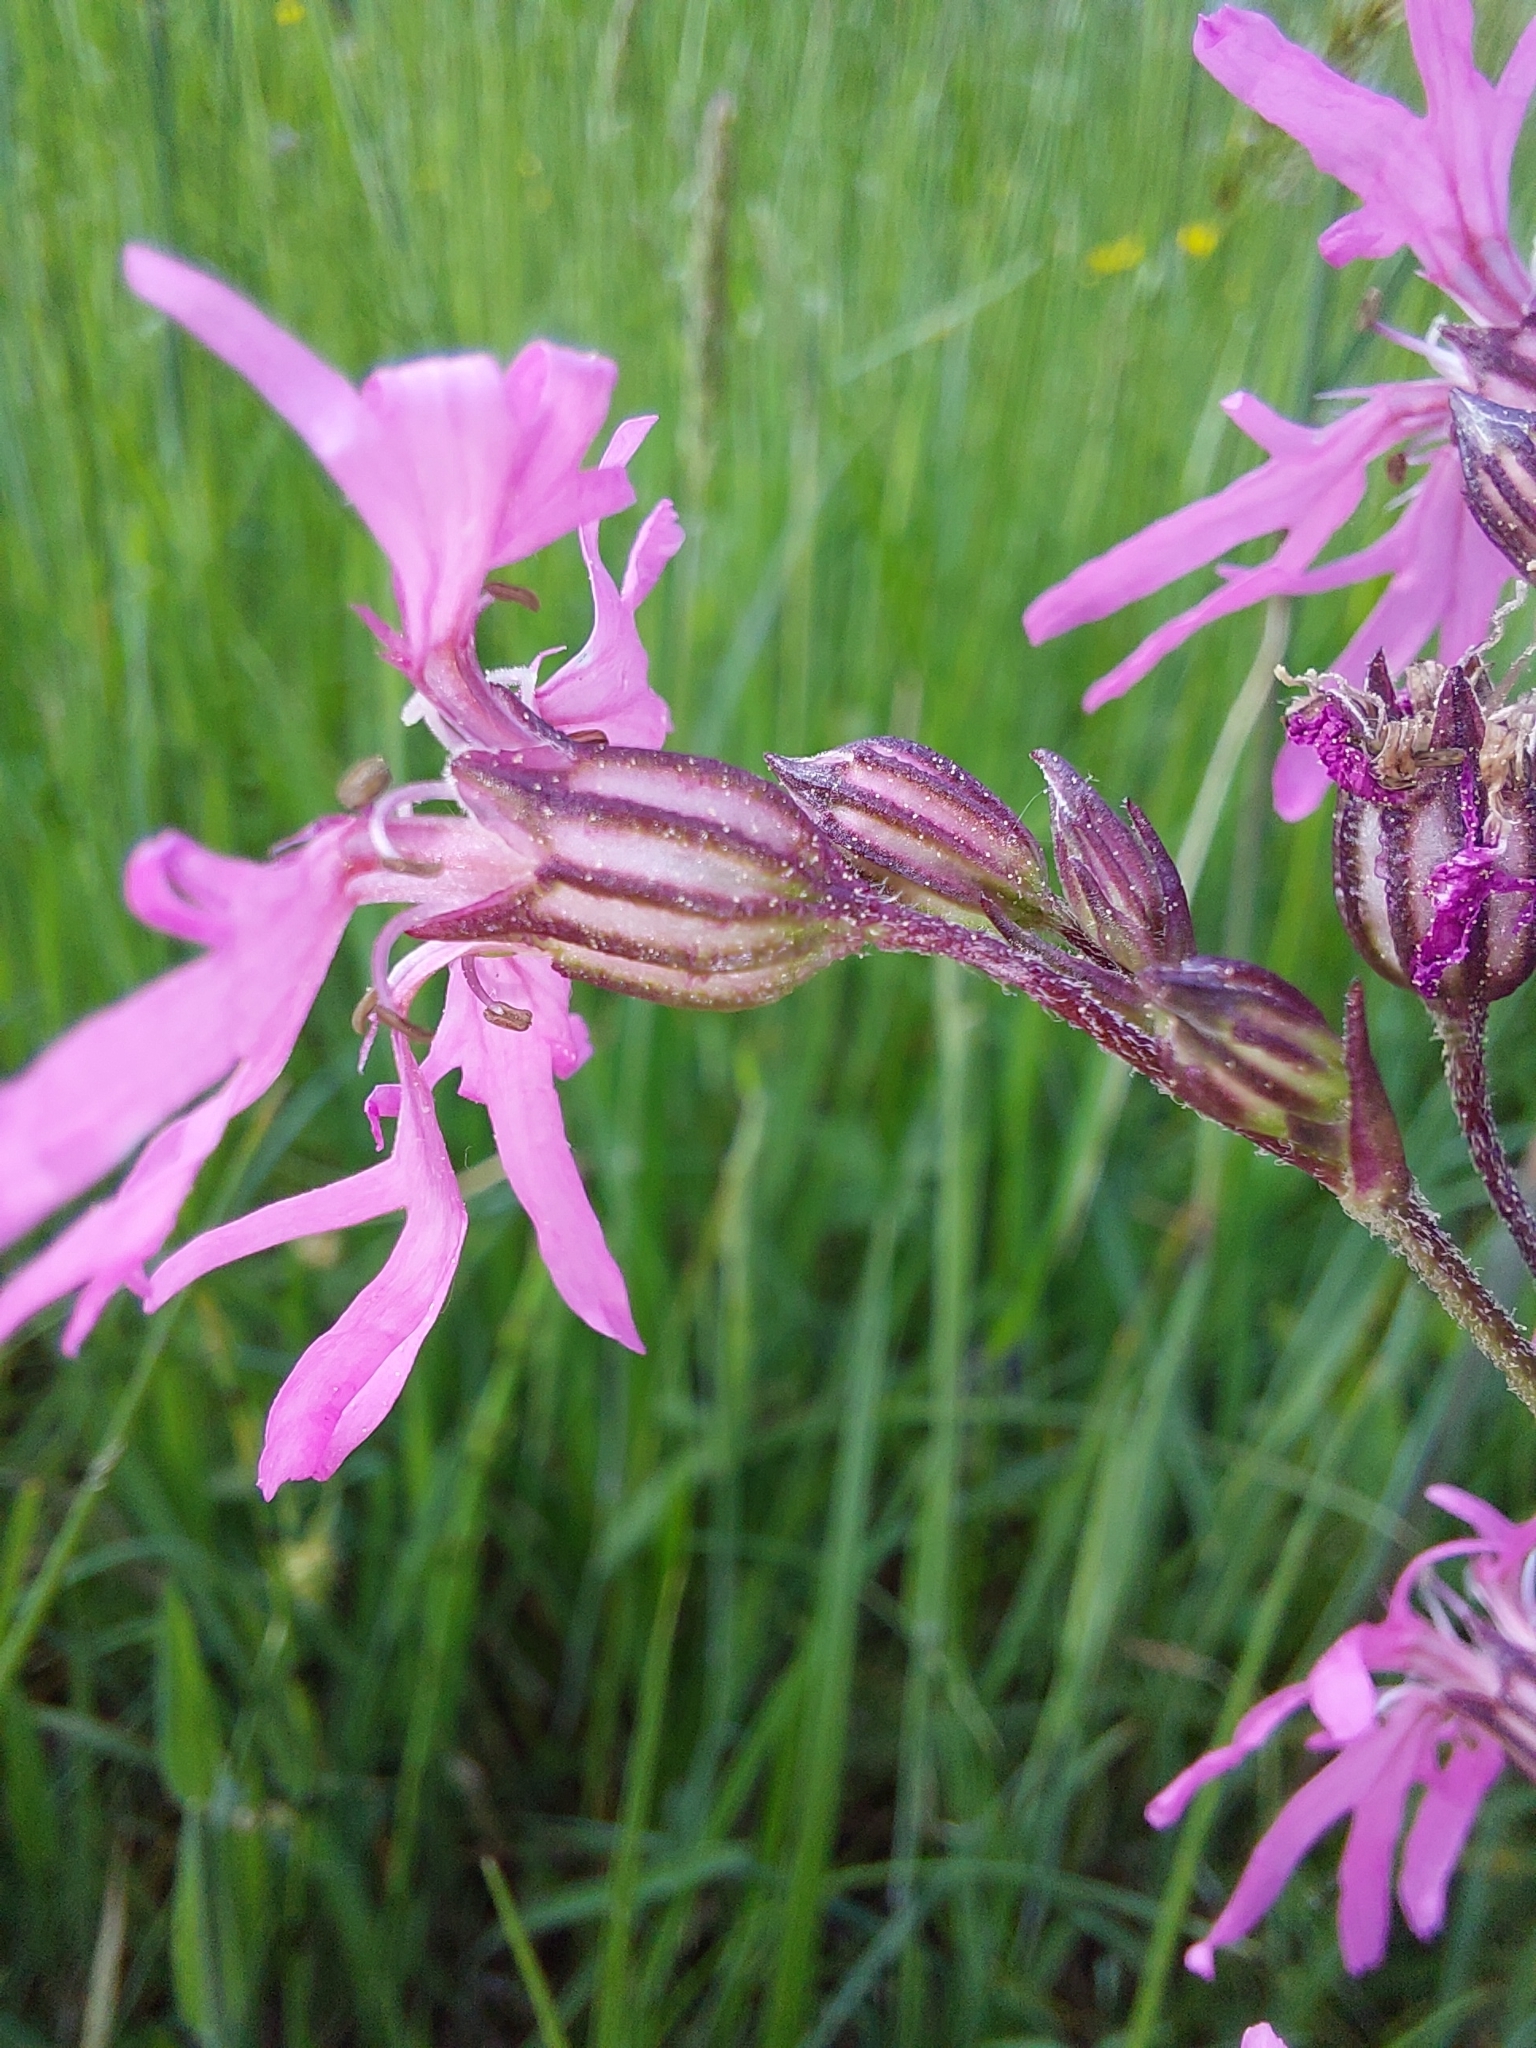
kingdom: Plantae
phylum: Tracheophyta
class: Magnoliopsida
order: Caryophyllales
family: Caryophyllaceae
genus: Silene
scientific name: Silene flos-cuculi
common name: Ragged-robin
